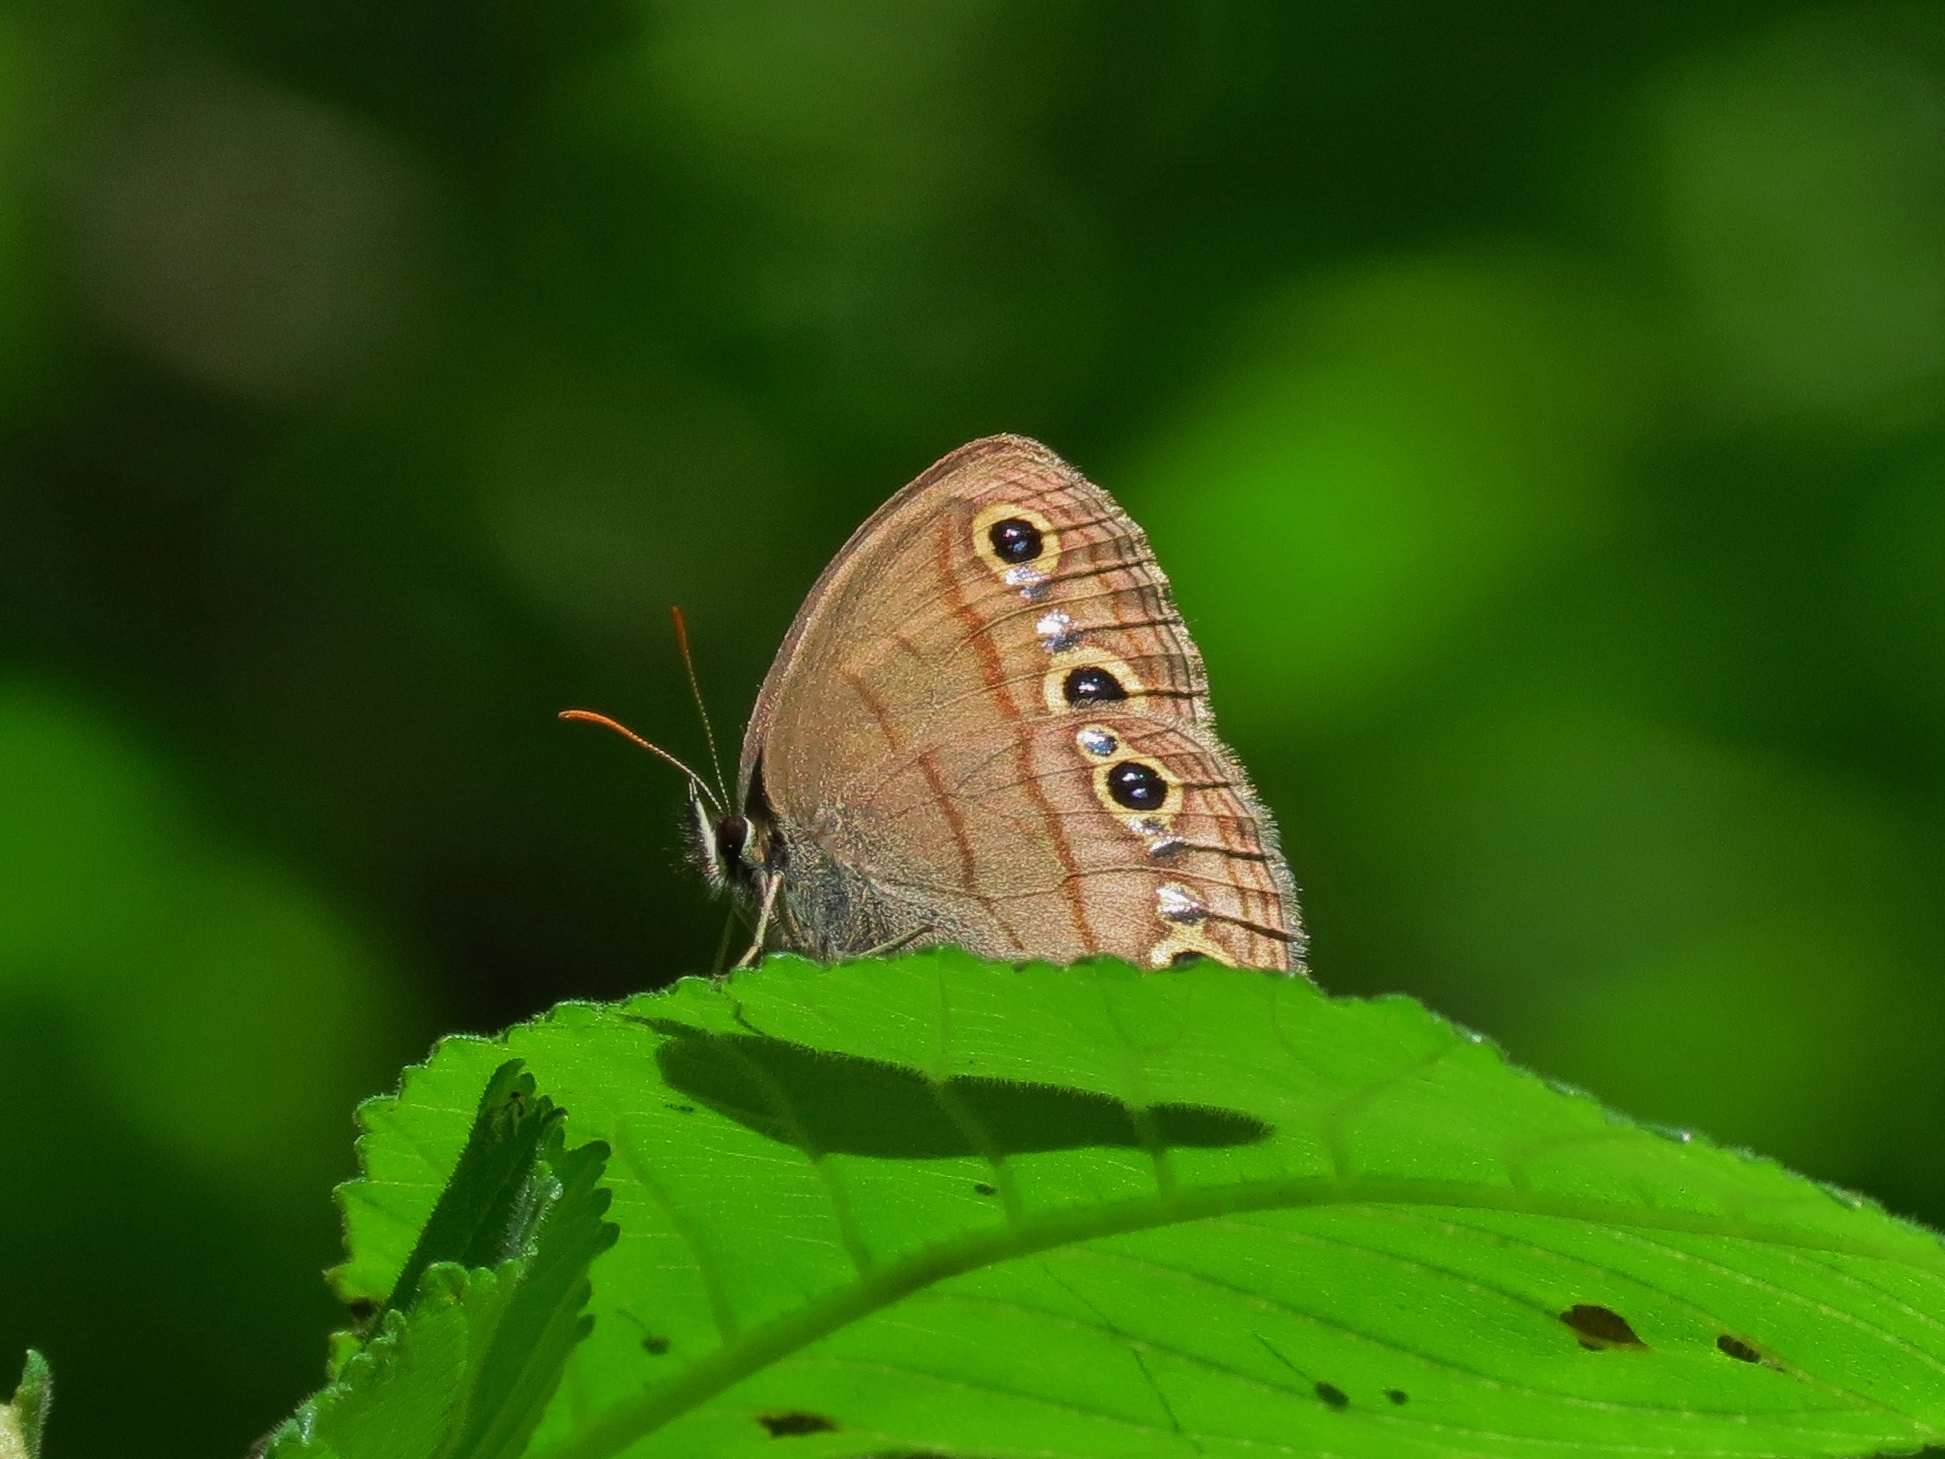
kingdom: Animalia
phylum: Arthropoda
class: Insecta
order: Lepidoptera
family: Nymphalidae
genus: Euptychia
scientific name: Euptychia cymela
